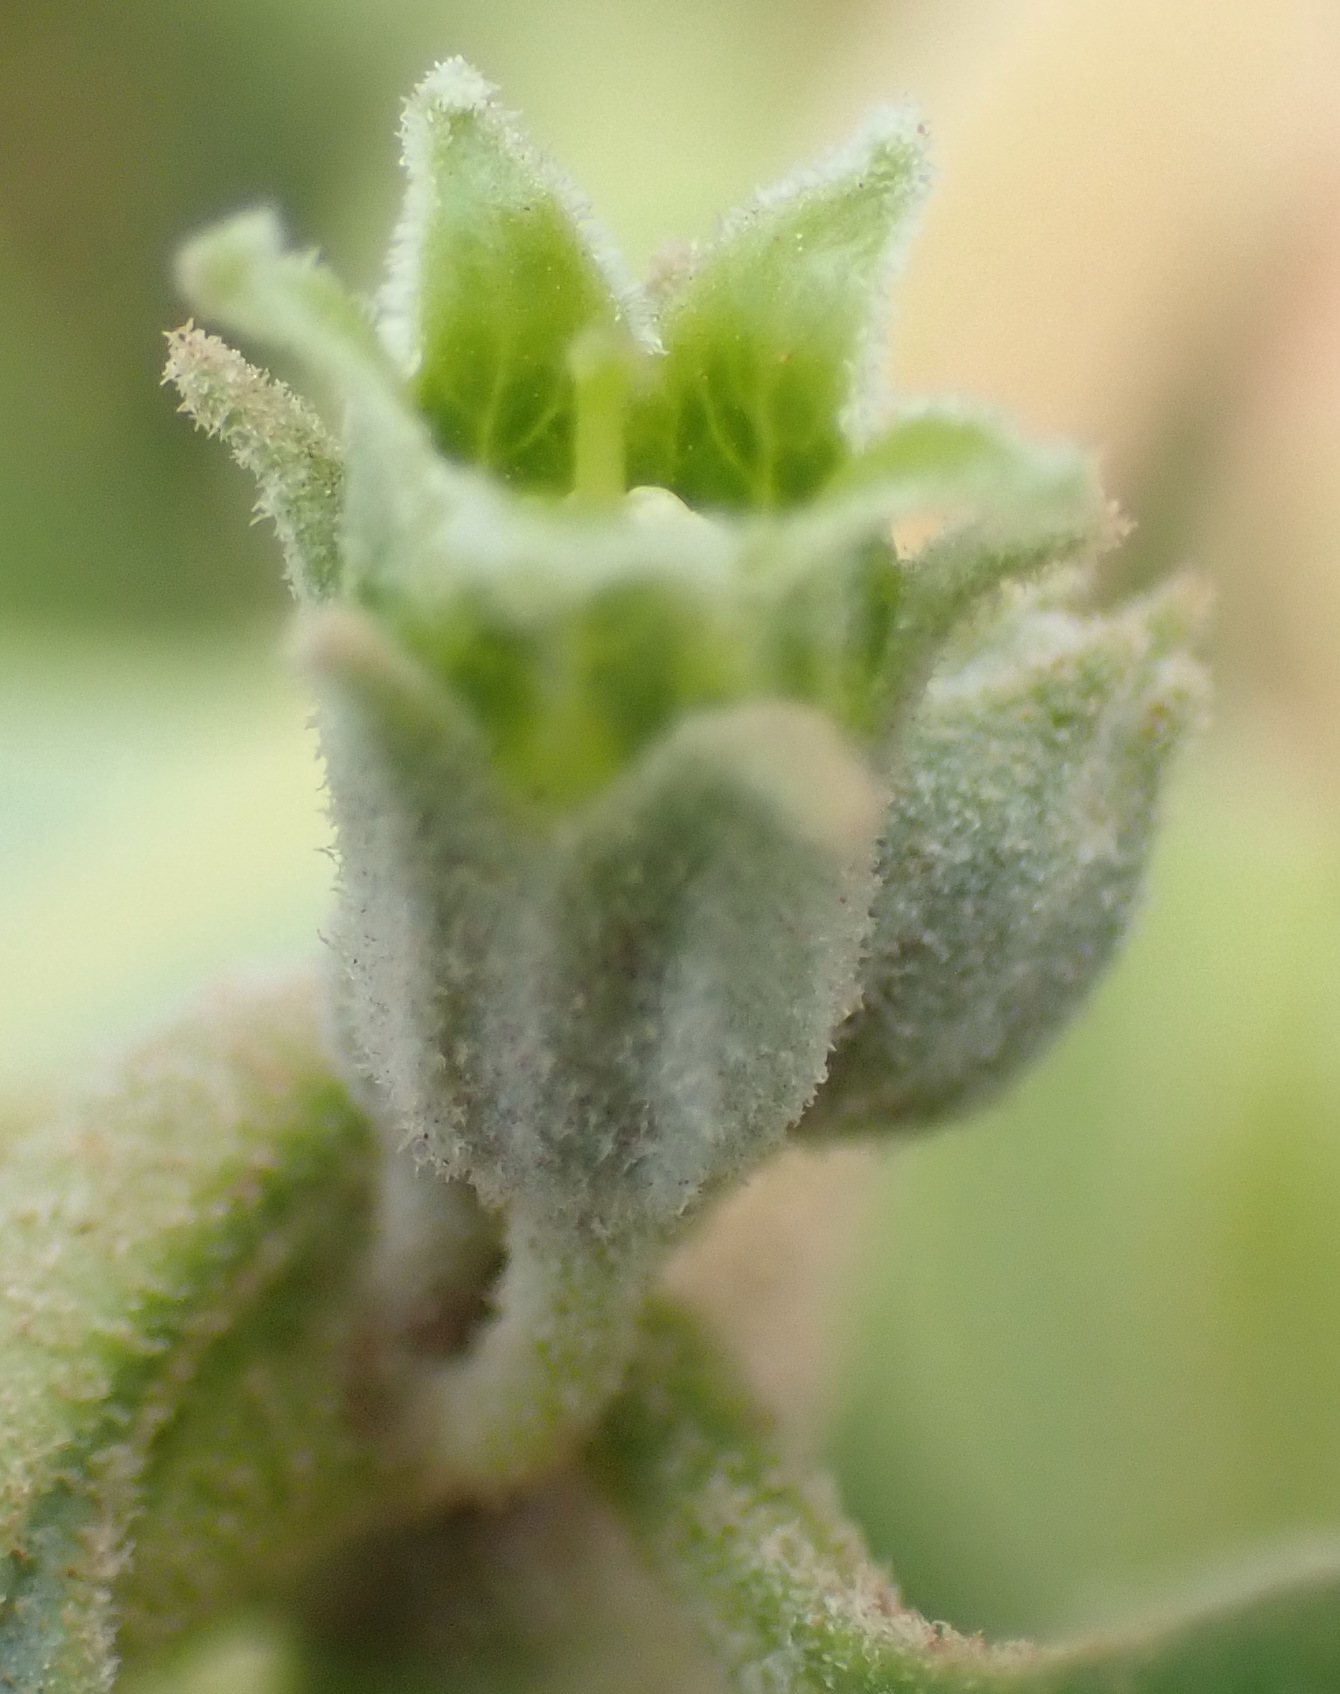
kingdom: Plantae
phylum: Tracheophyta
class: Magnoliopsida
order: Solanales
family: Solanaceae
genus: Withania
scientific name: Withania somnifera
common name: Winter-cherry
